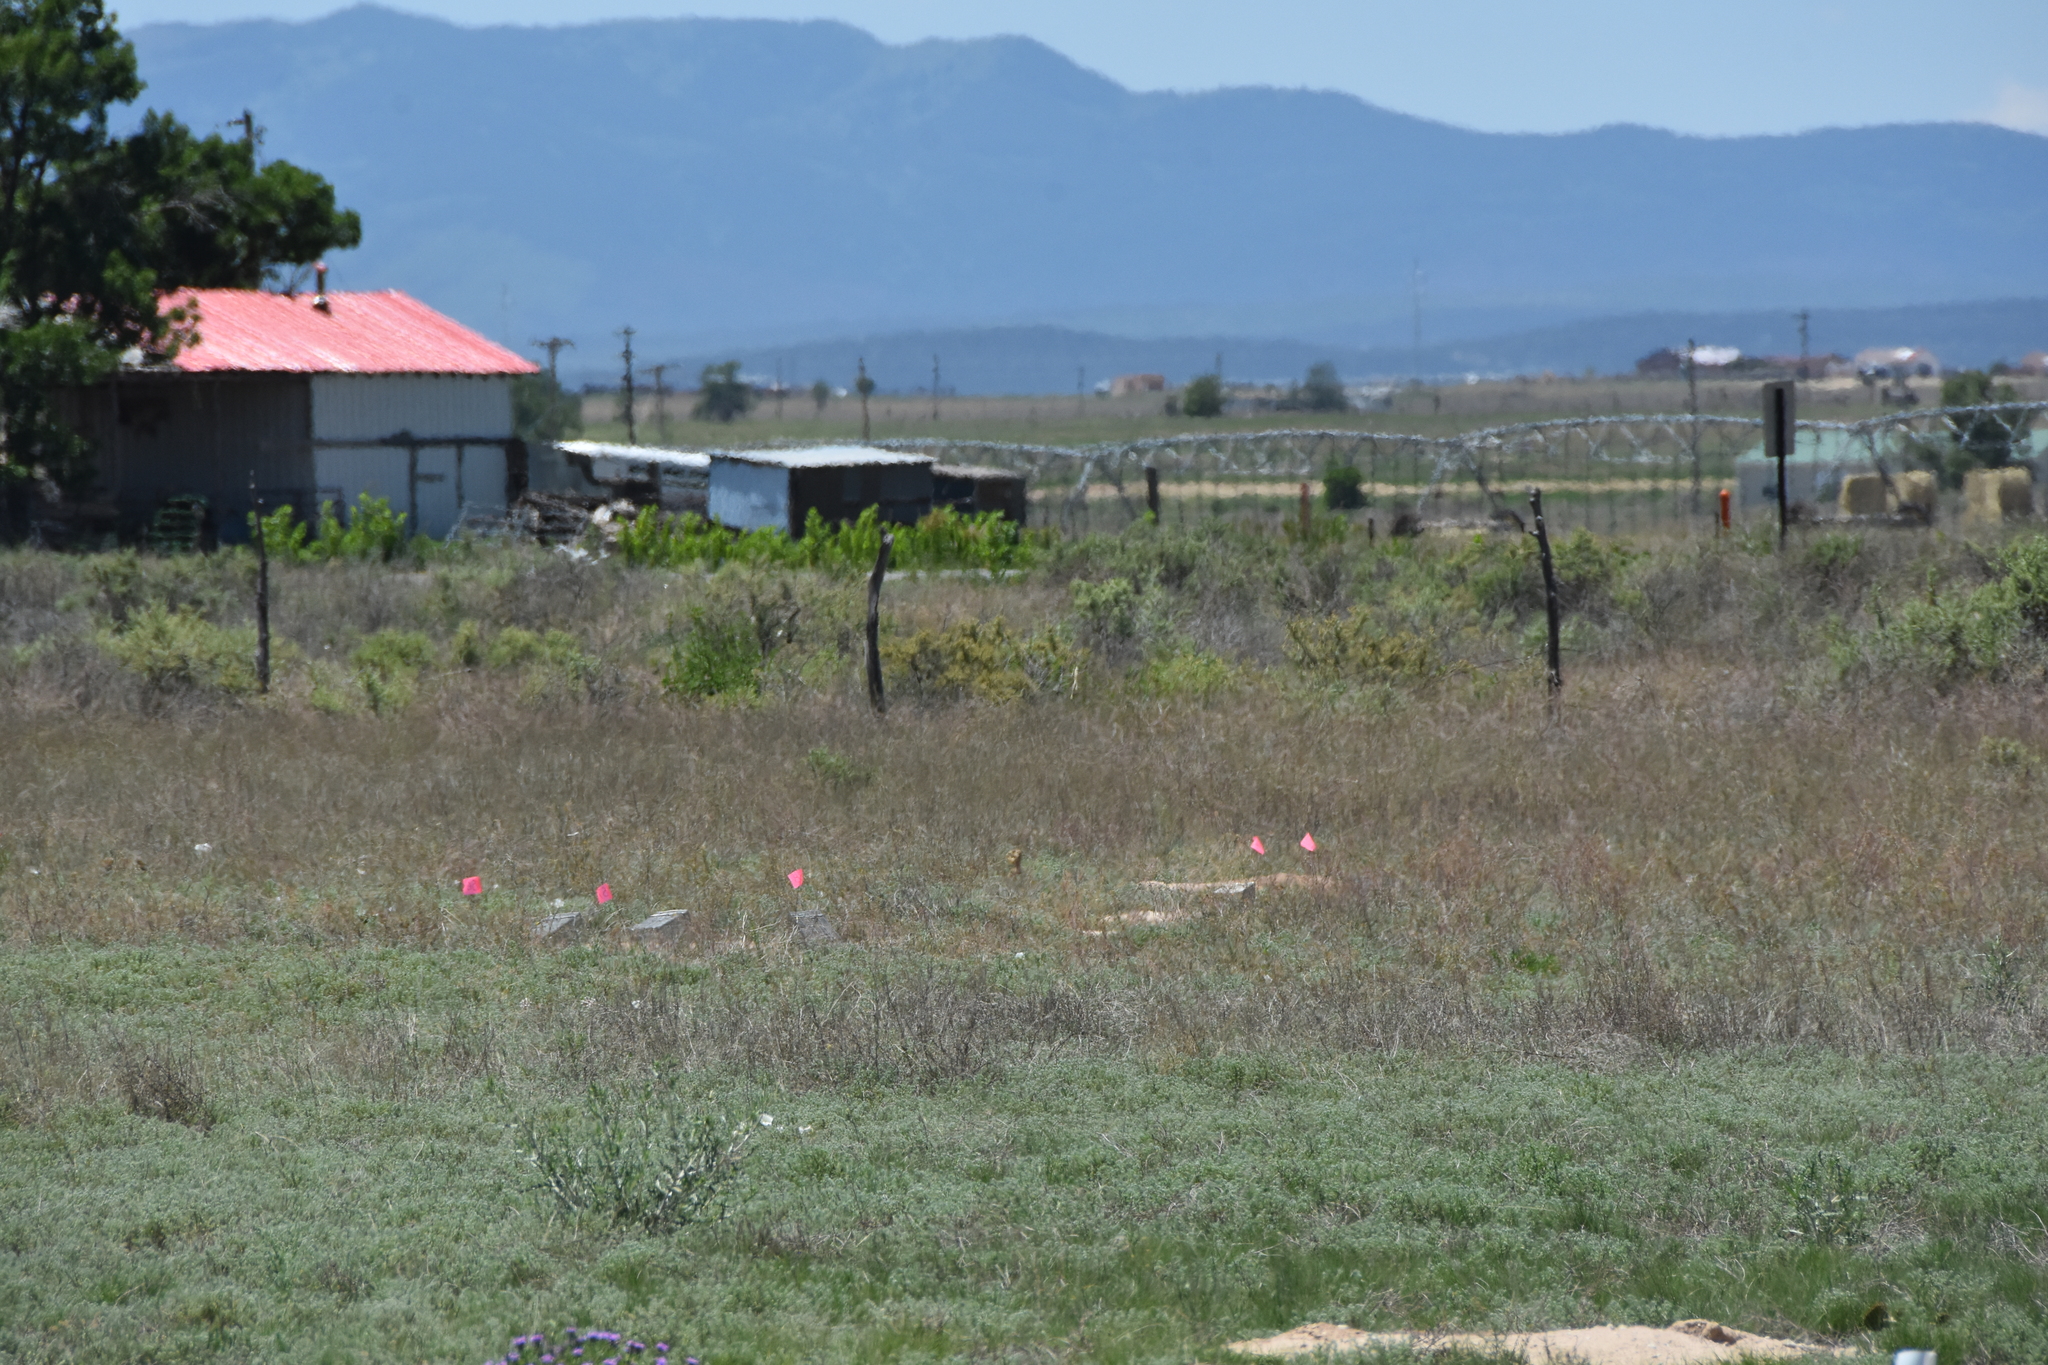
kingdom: Animalia
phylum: Chordata
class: Mammalia
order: Rodentia
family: Sciuridae
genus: Cynomys
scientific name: Cynomys gunnisoni
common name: Gunnison's prairie dog
